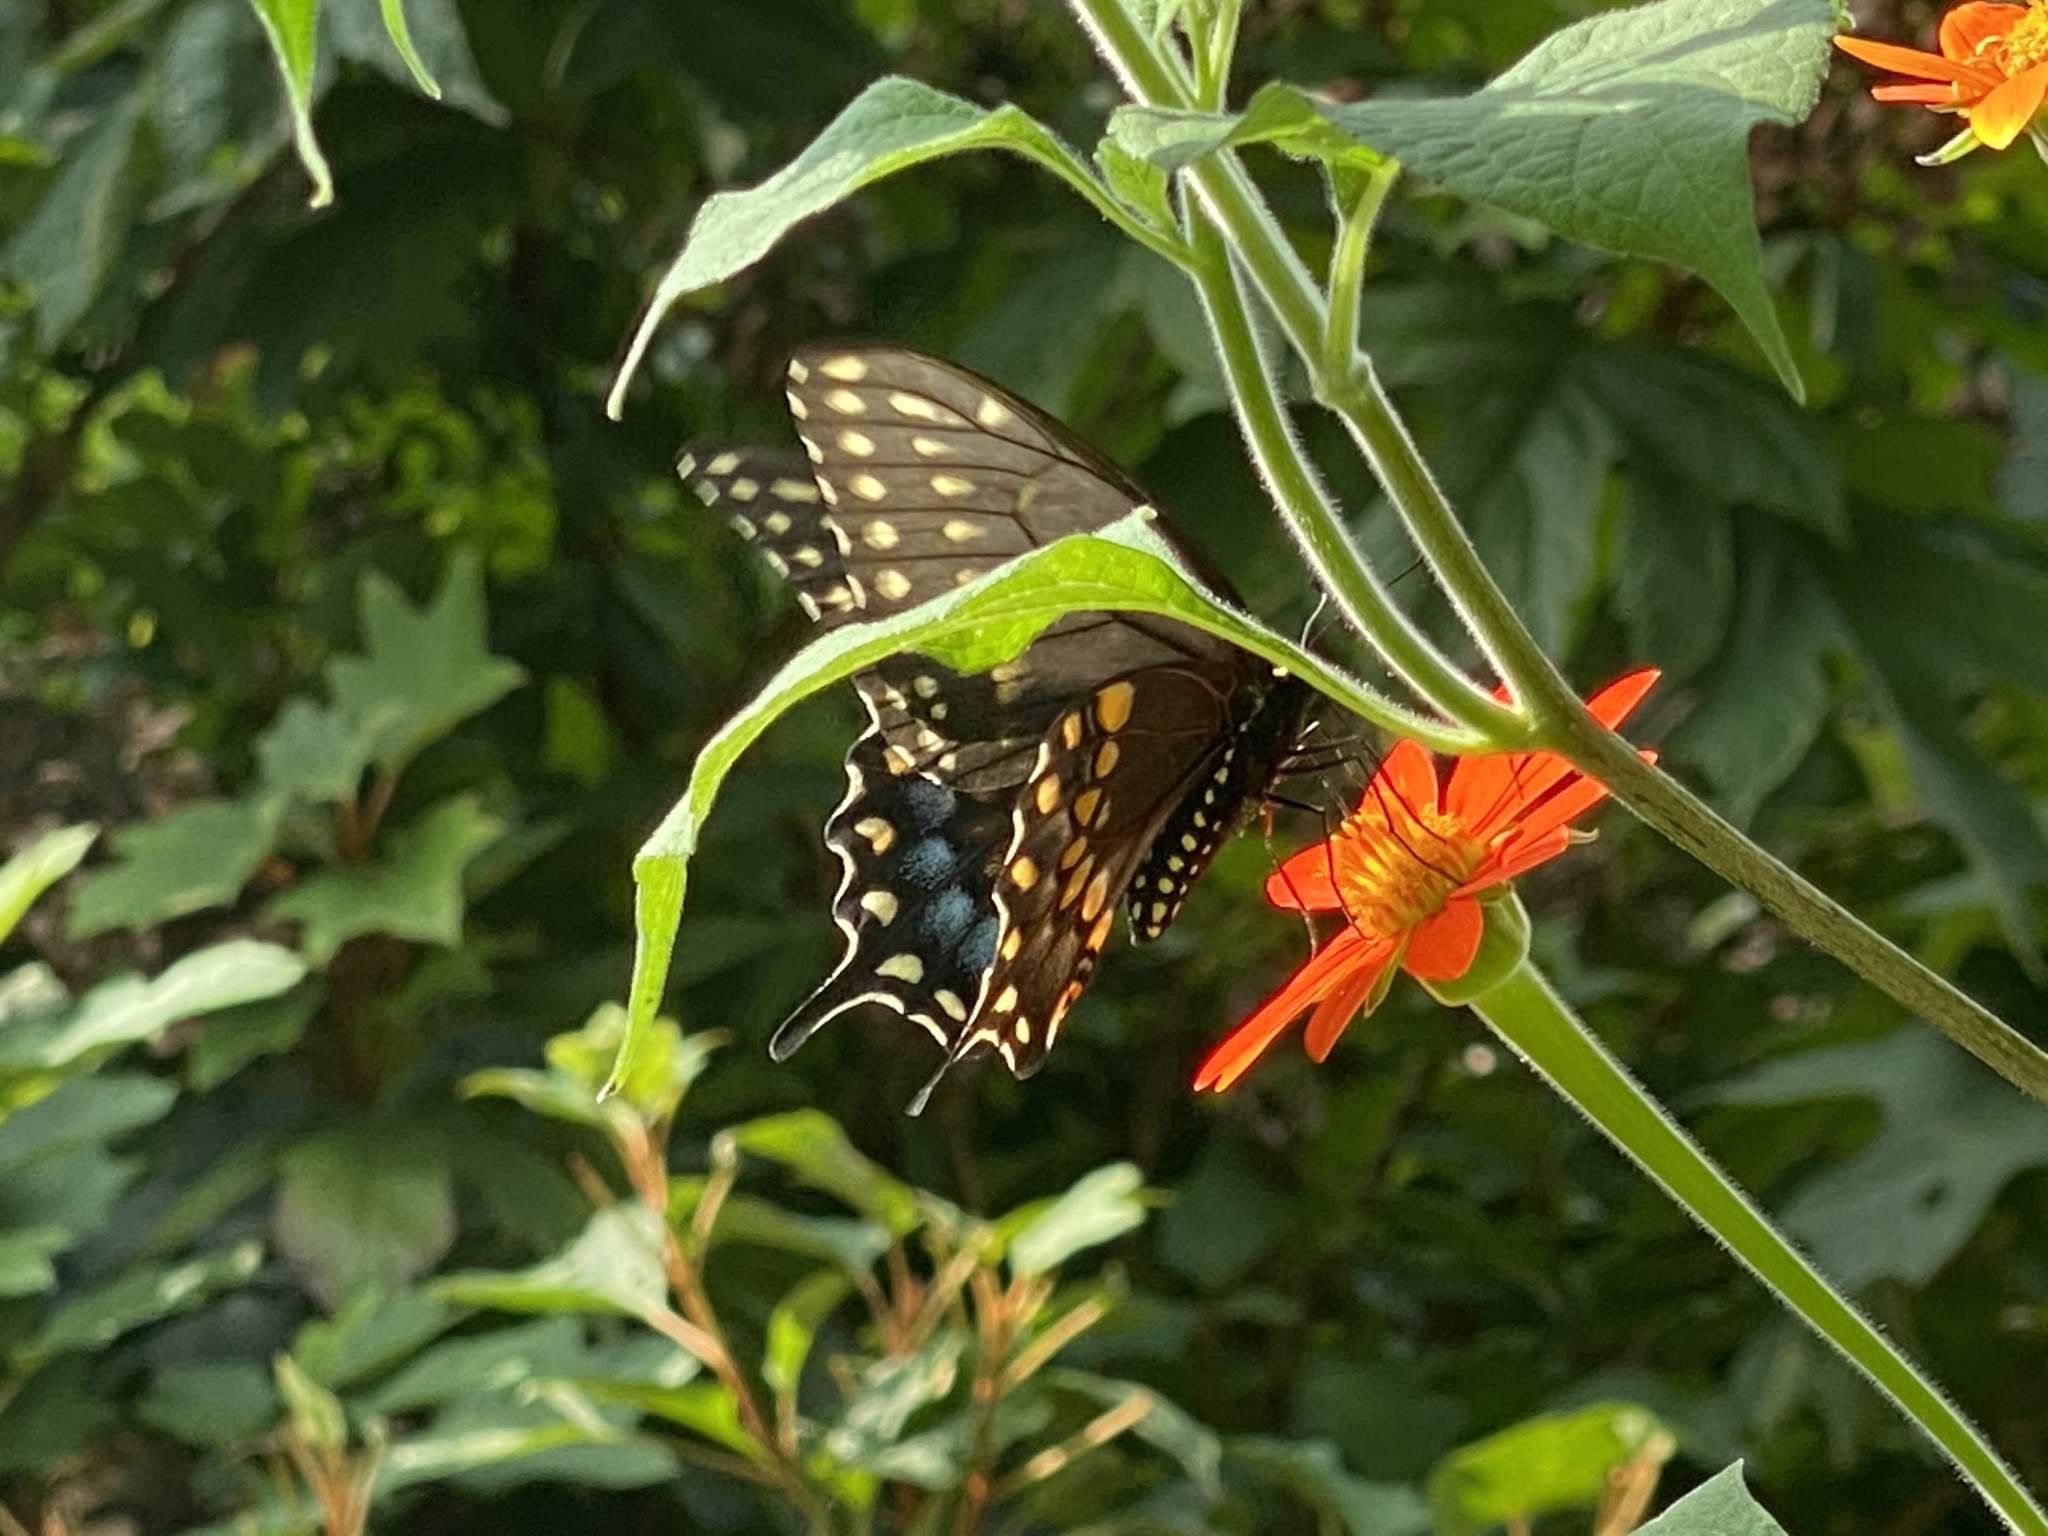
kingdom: Animalia
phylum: Arthropoda
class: Insecta
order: Lepidoptera
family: Papilionidae
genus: Papilio
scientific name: Papilio polyxenes
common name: Black swallowtail
